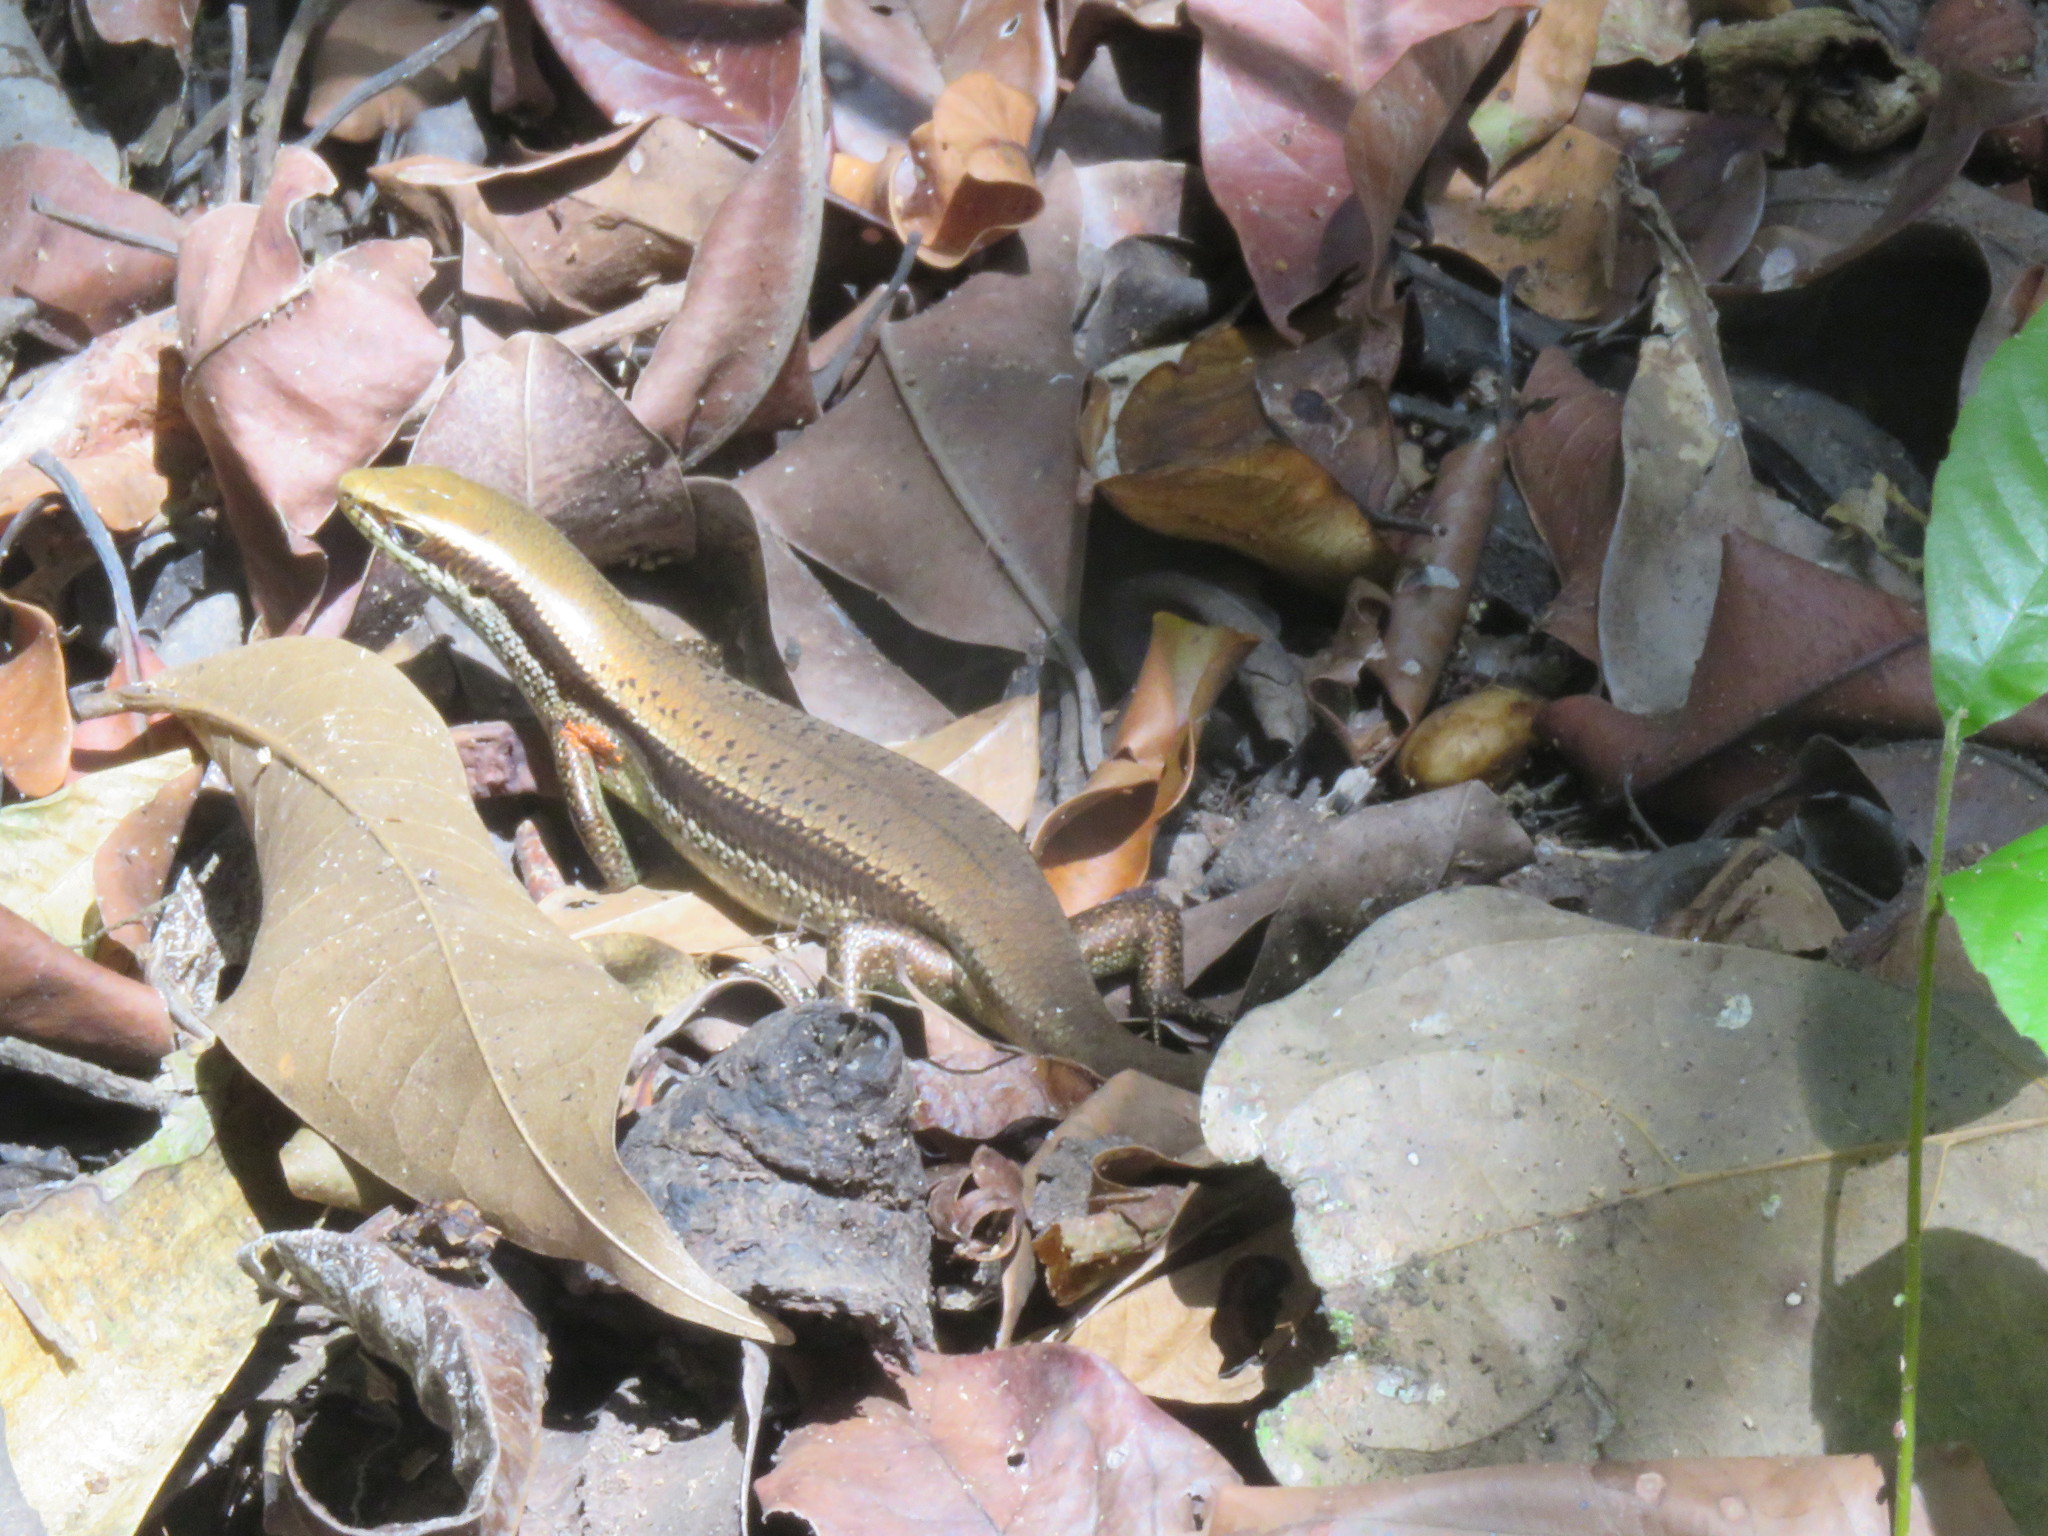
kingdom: Animalia
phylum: Chordata
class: Squamata
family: Scincidae
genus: Varzea
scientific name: Varzea altamazonica
